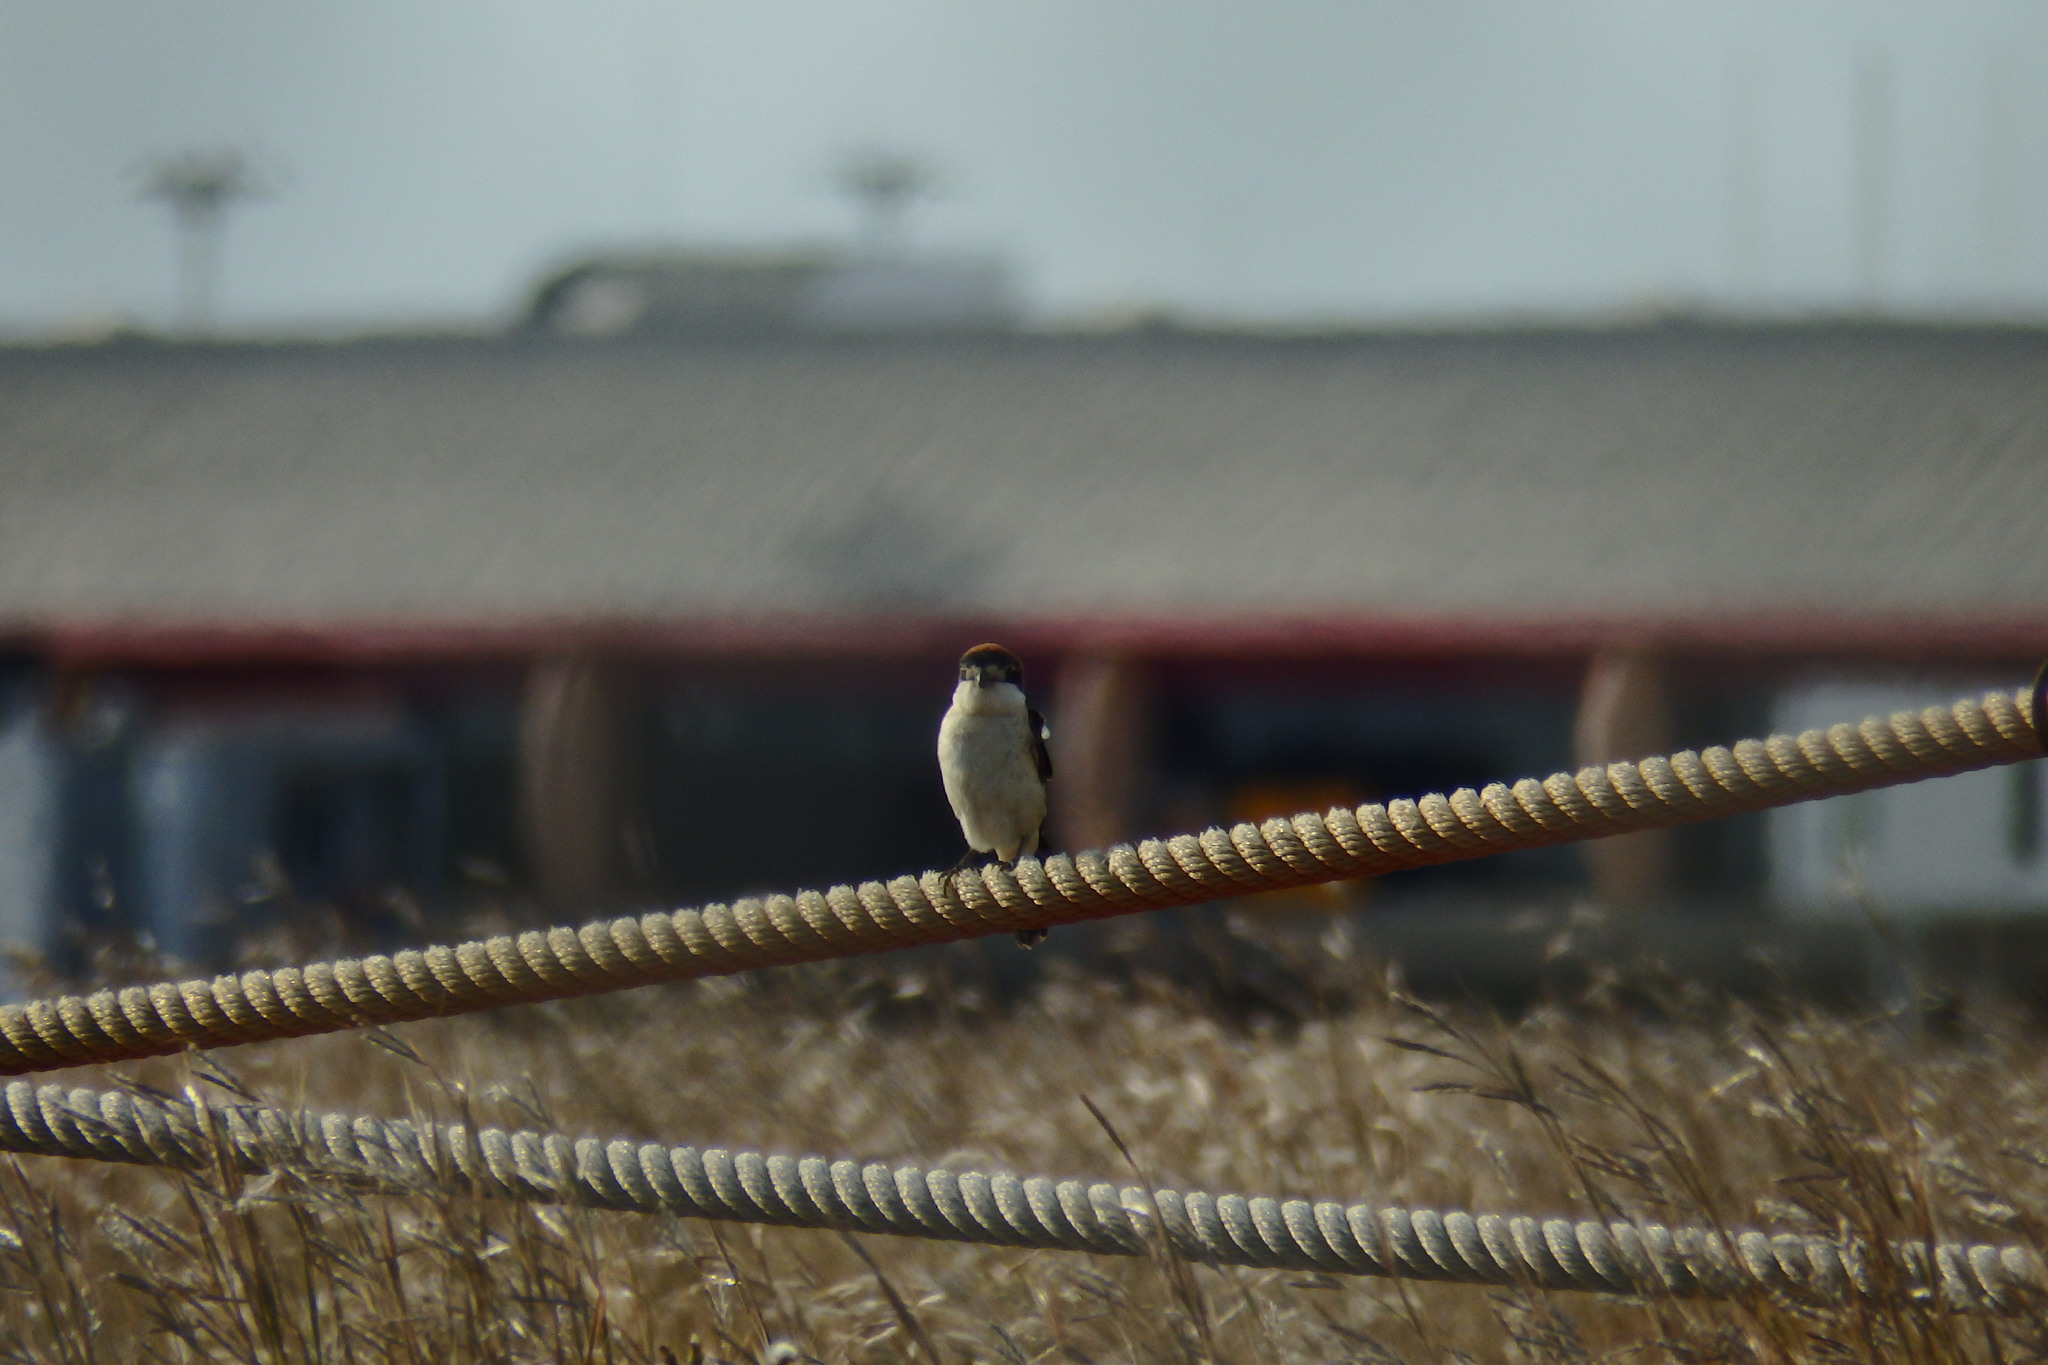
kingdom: Animalia
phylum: Chordata
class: Aves
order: Passeriformes
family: Laniidae
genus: Lanius
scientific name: Lanius senator
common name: Woodchat shrike
